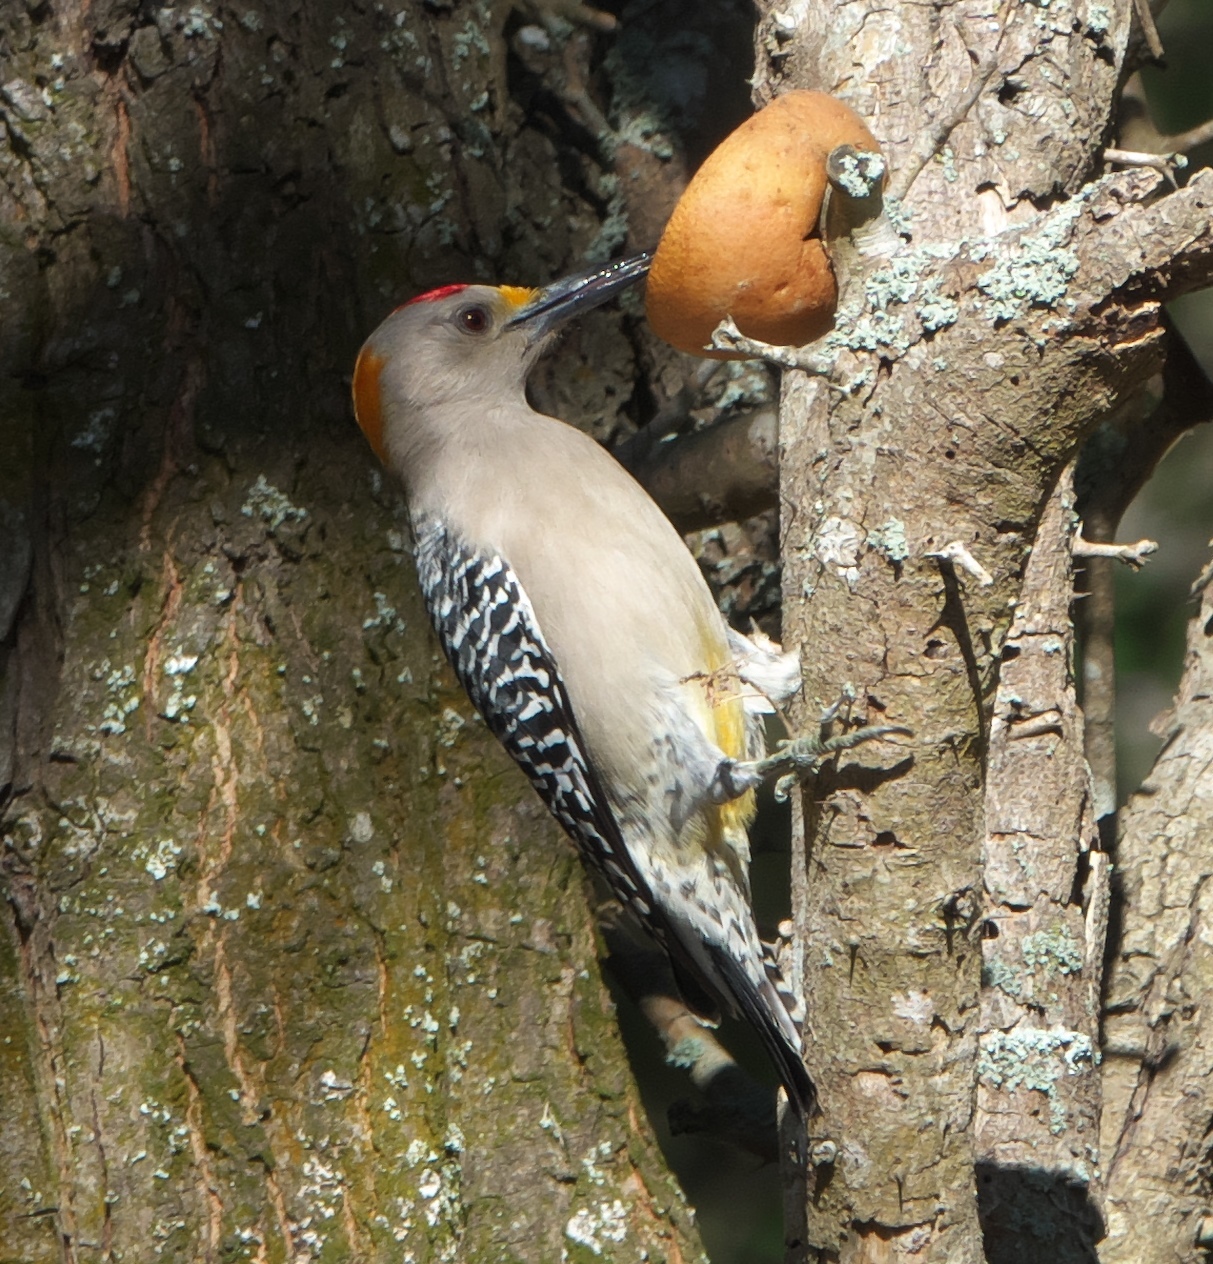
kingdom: Animalia
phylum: Chordata
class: Aves
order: Piciformes
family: Picidae
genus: Melanerpes
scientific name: Melanerpes aurifrons
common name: Golden-fronted woodpecker
